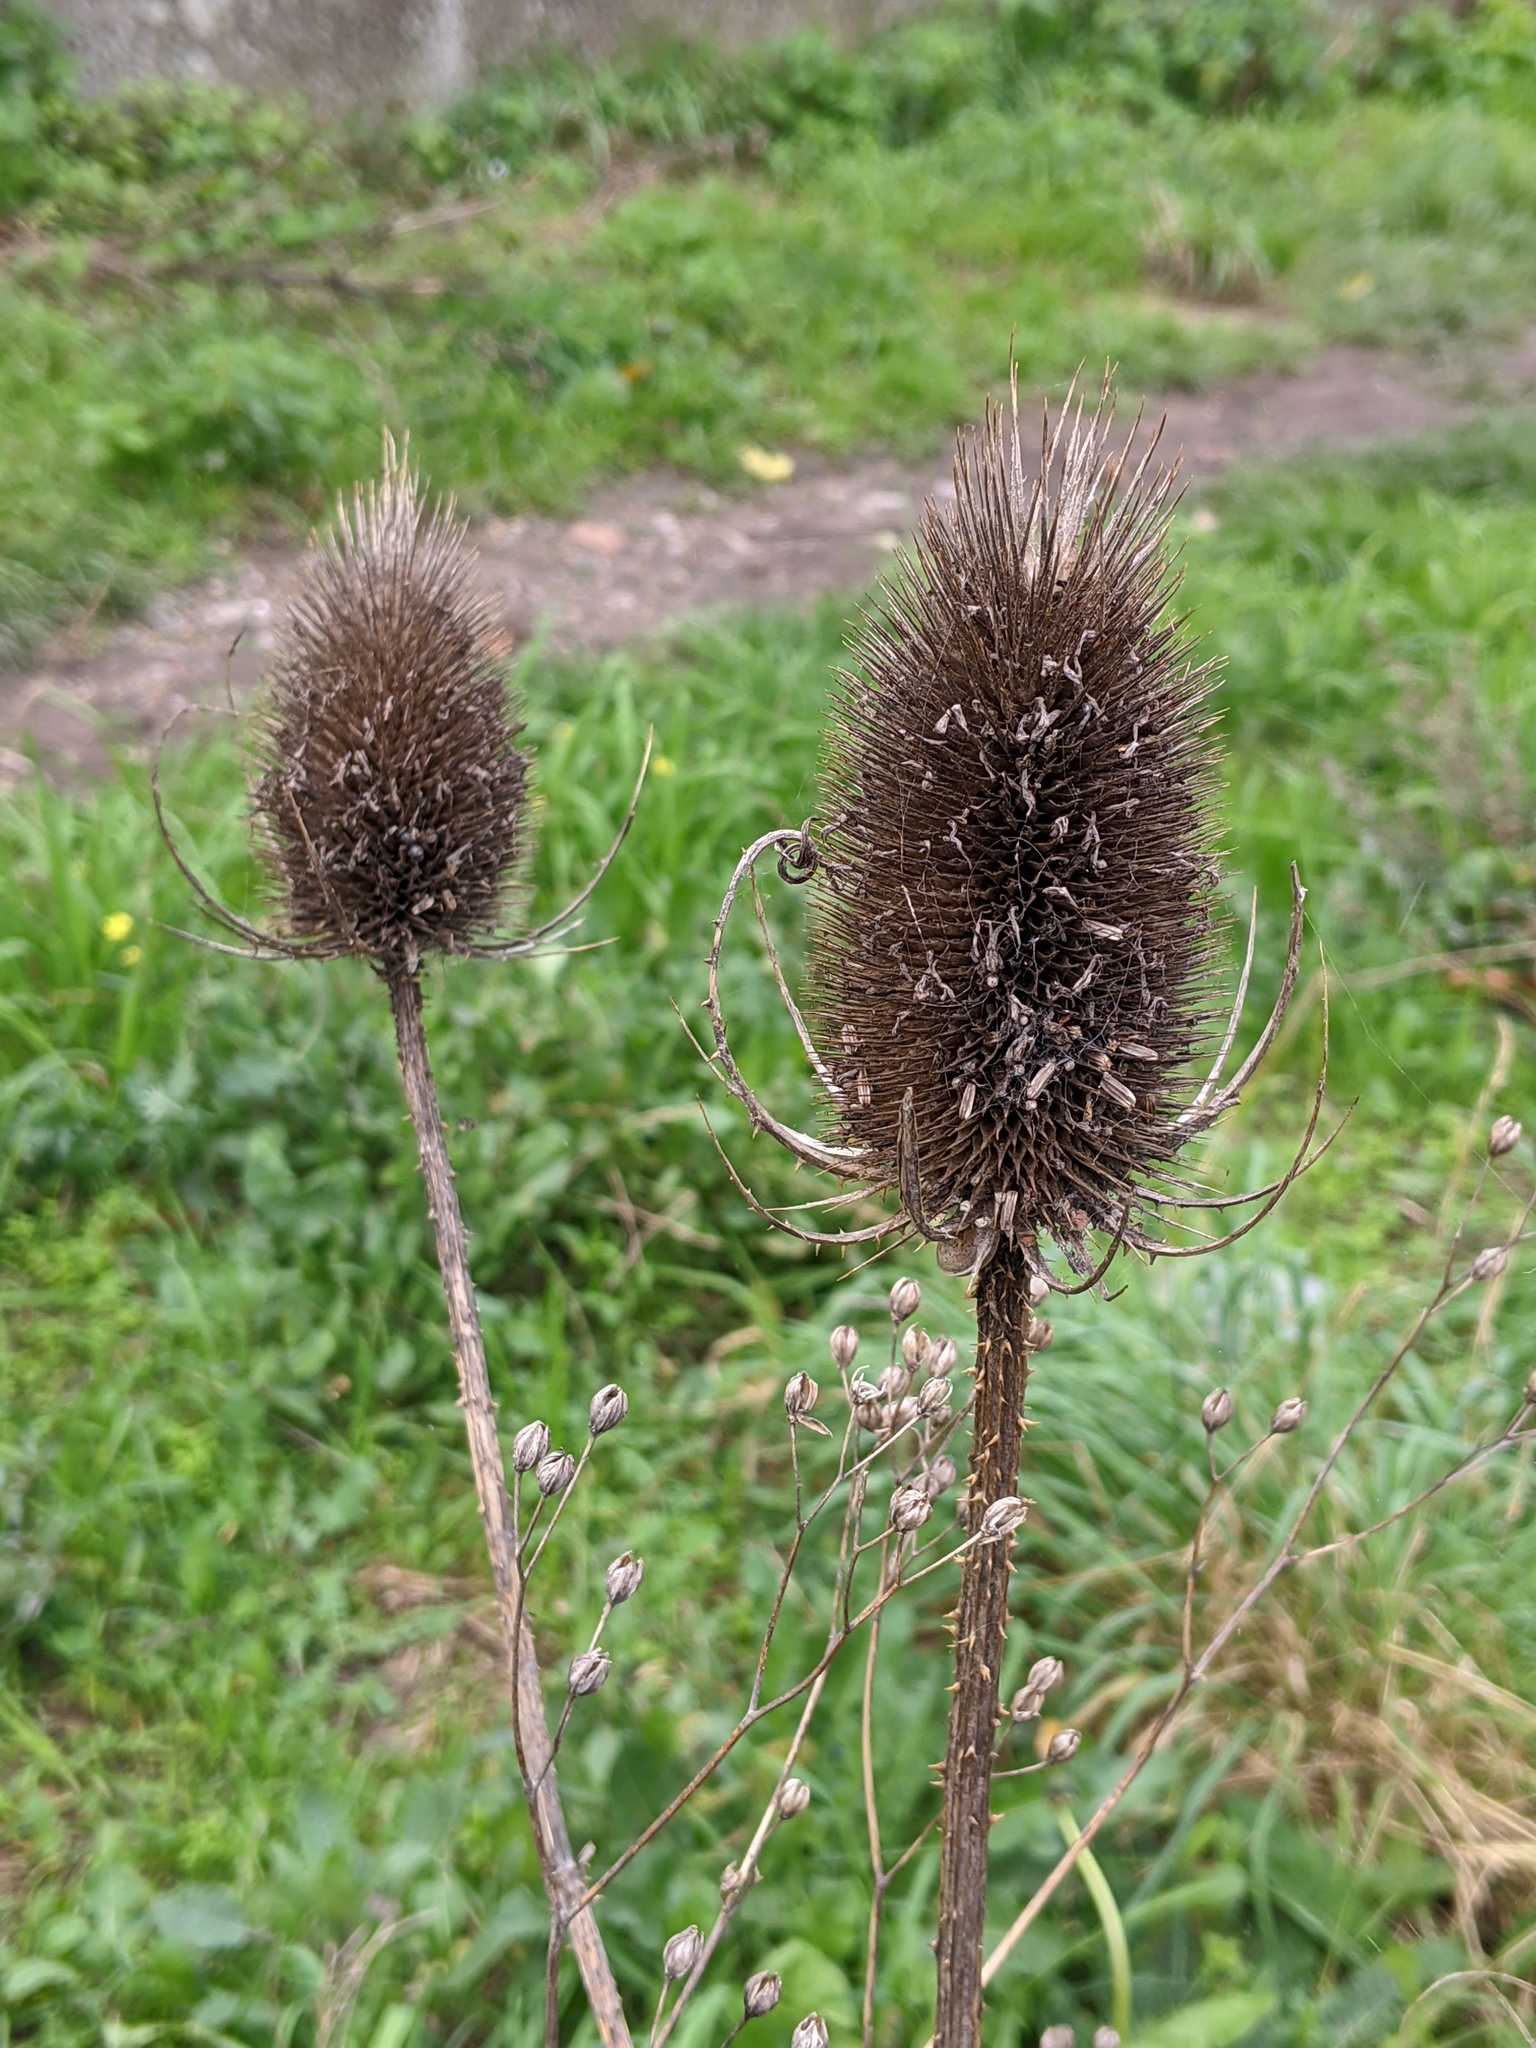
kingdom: Plantae
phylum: Tracheophyta
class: Magnoliopsida
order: Dipsacales
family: Caprifoliaceae
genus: Dipsacus
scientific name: Dipsacus fullonum
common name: Teasel
